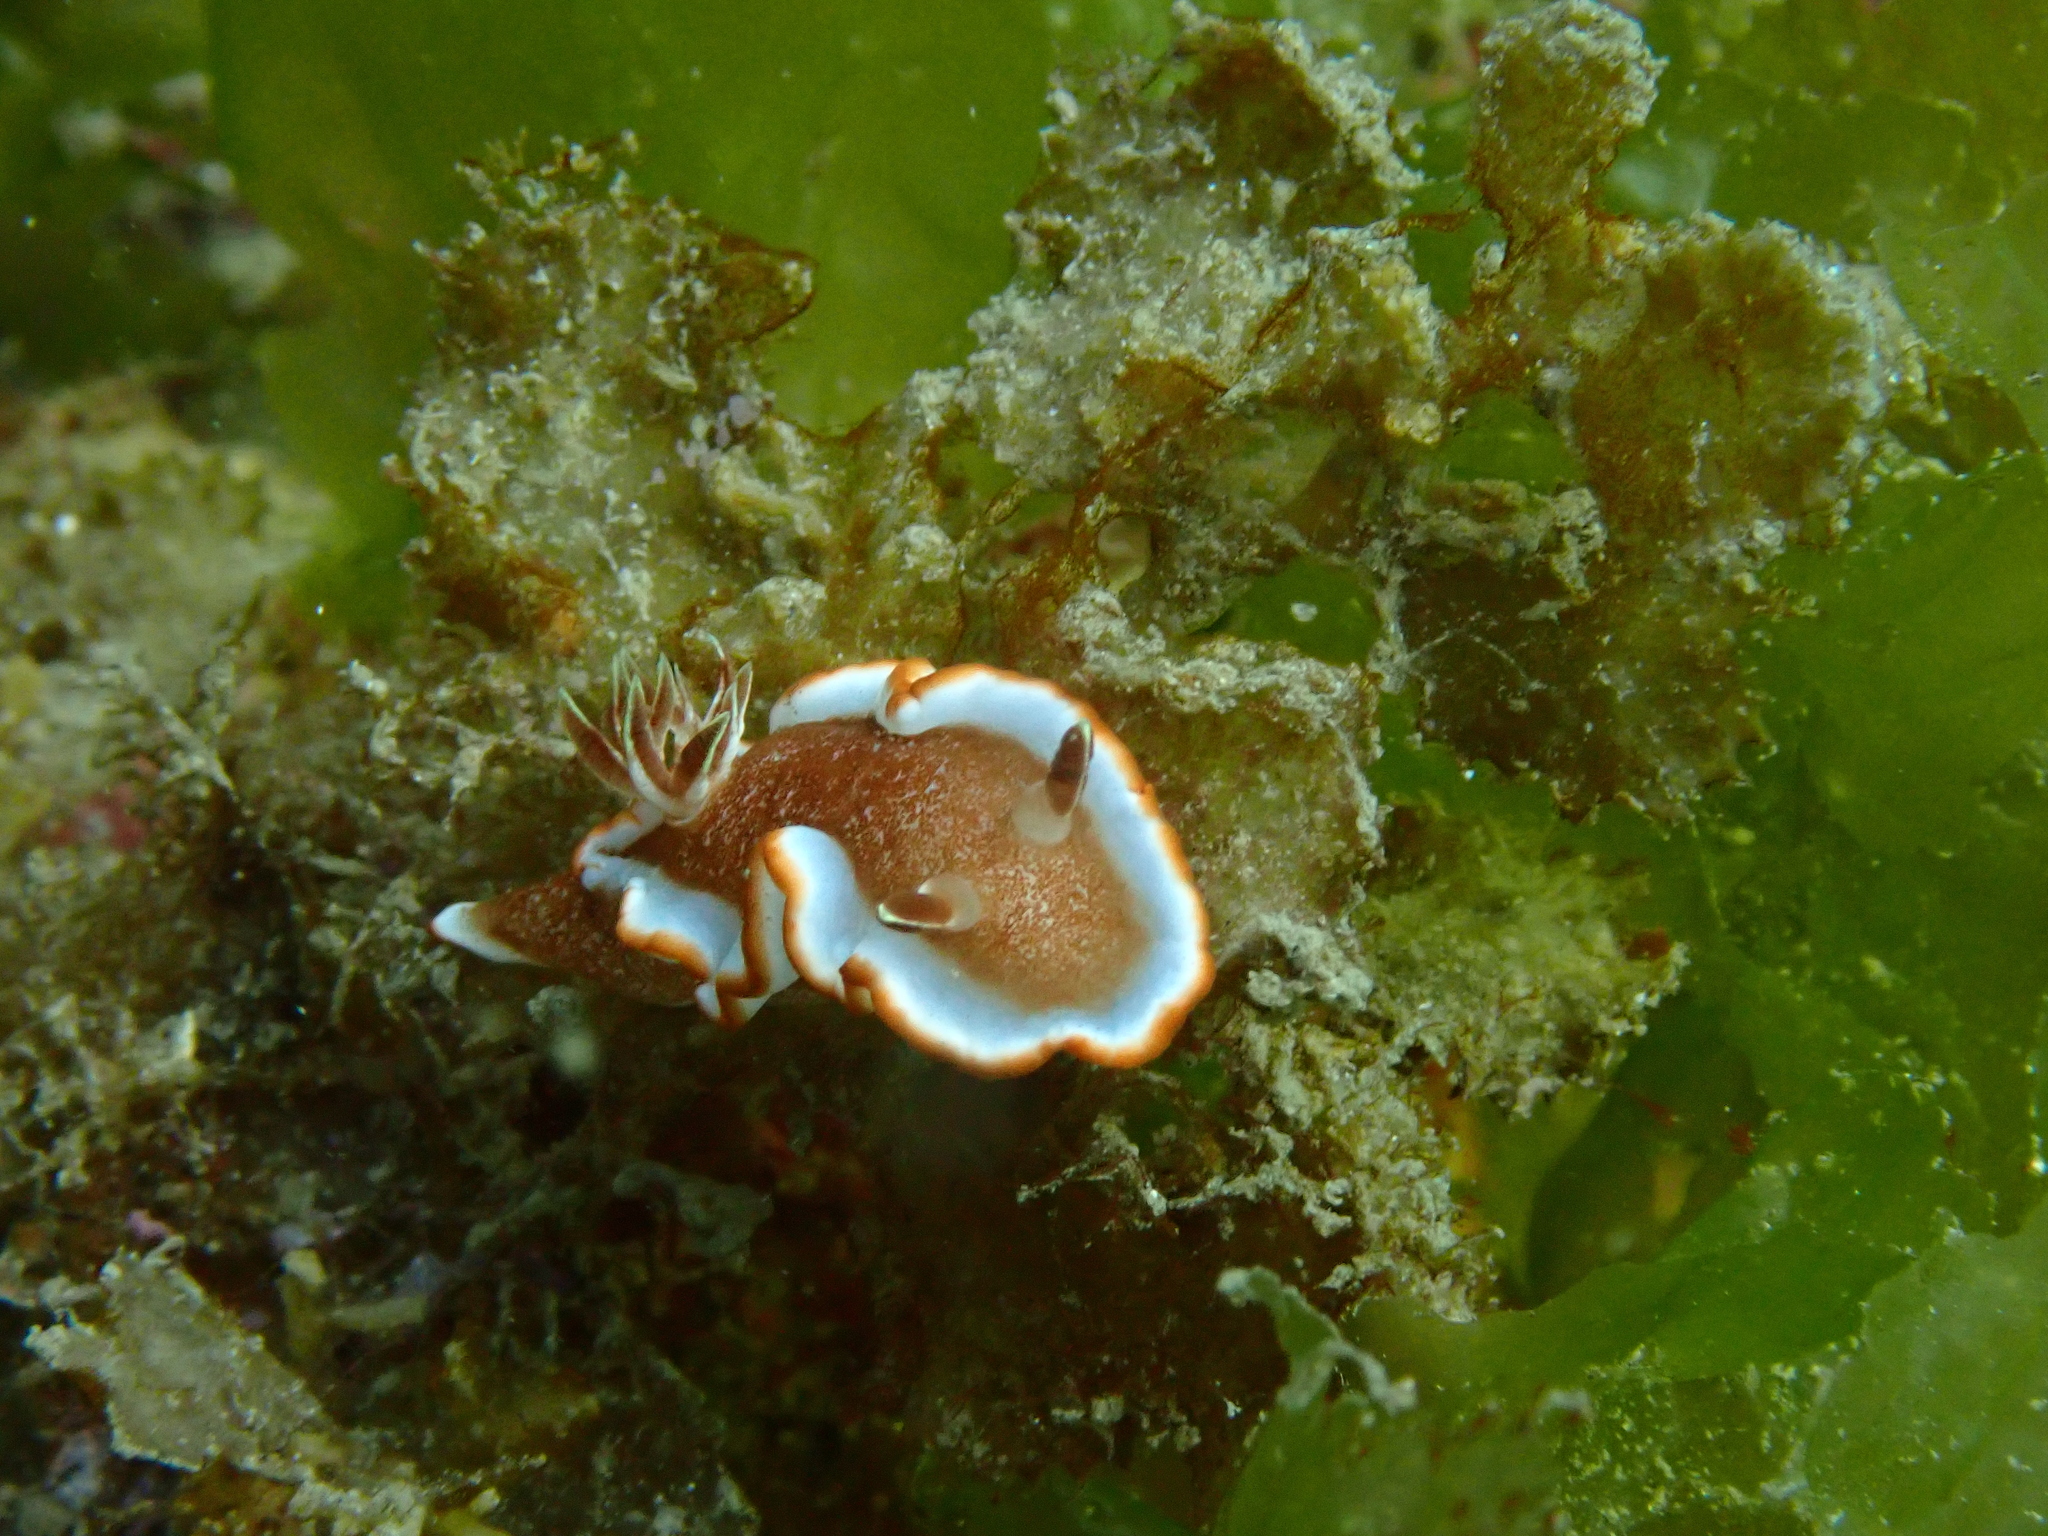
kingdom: Animalia
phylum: Mollusca
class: Gastropoda
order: Nudibranchia
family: Chromodorididae
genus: Glossodoris
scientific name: Glossodoris rufomarginata
